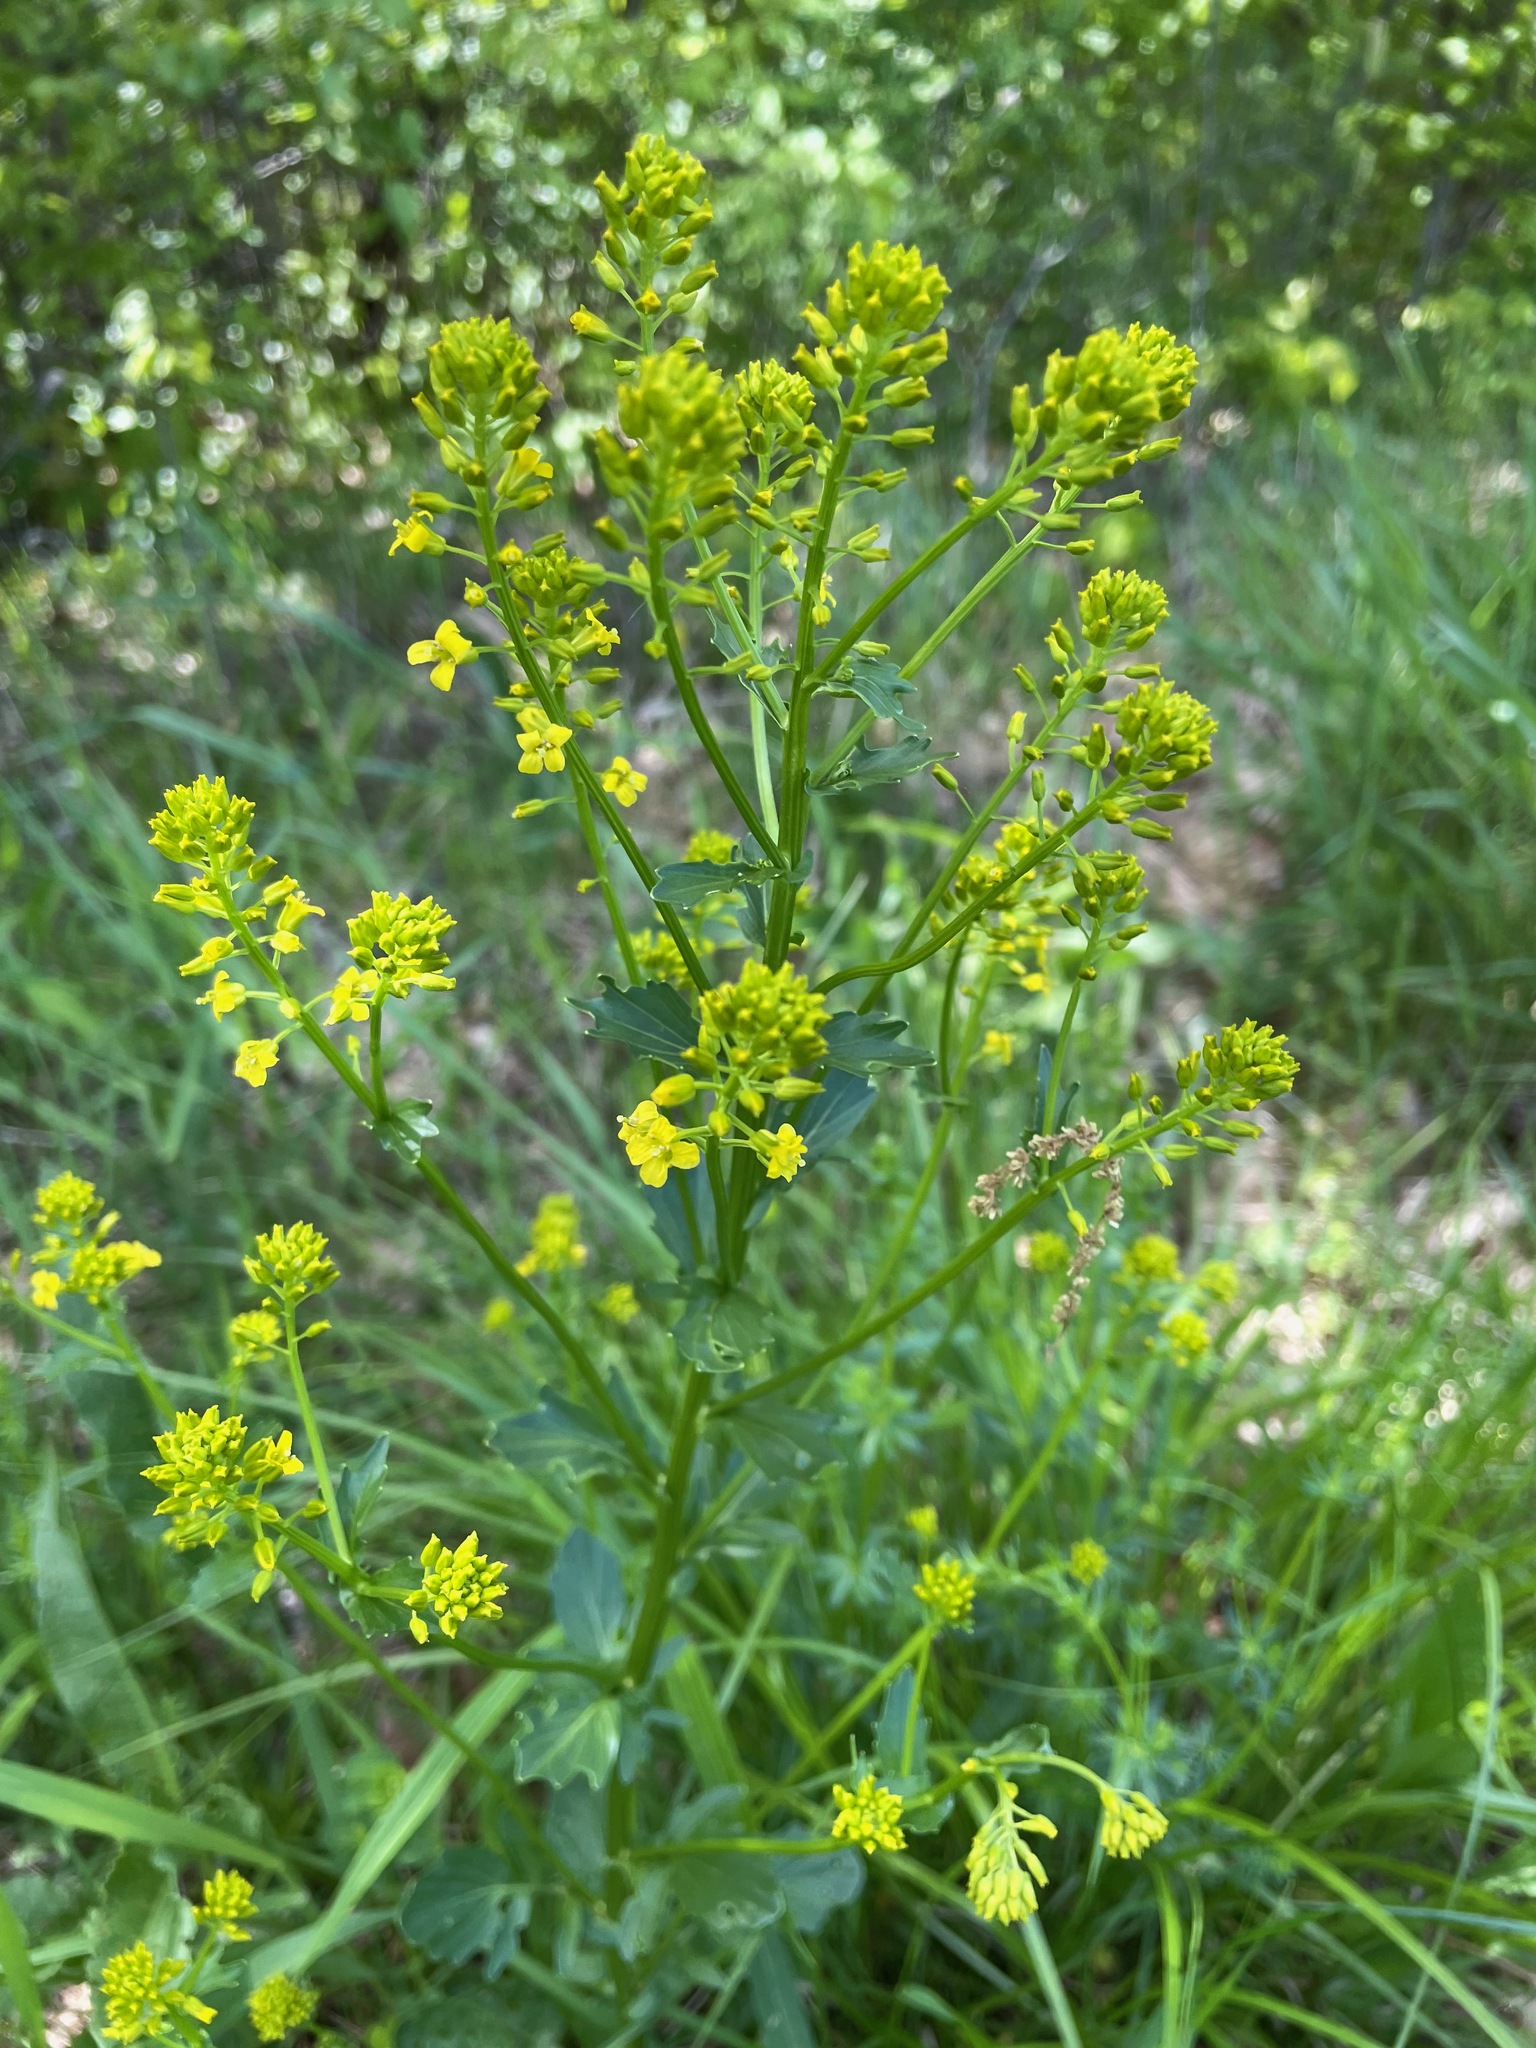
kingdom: Plantae
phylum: Tracheophyta
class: Magnoliopsida
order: Brassicales
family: Brassicaceae
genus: Barbarea
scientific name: Barbarea vulgaris
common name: Cressy-greens
